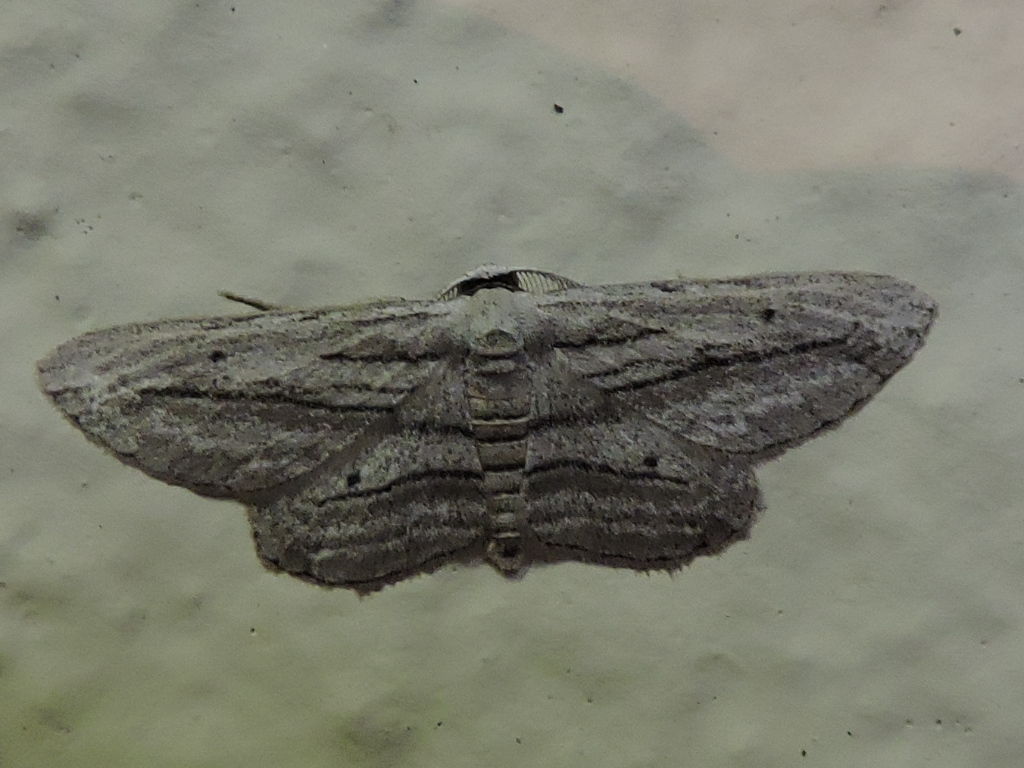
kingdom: Animalia
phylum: Arthropoda
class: Insecta
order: Lepidoptera
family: Geometridae
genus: Glena
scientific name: Glena quinquelinearia
